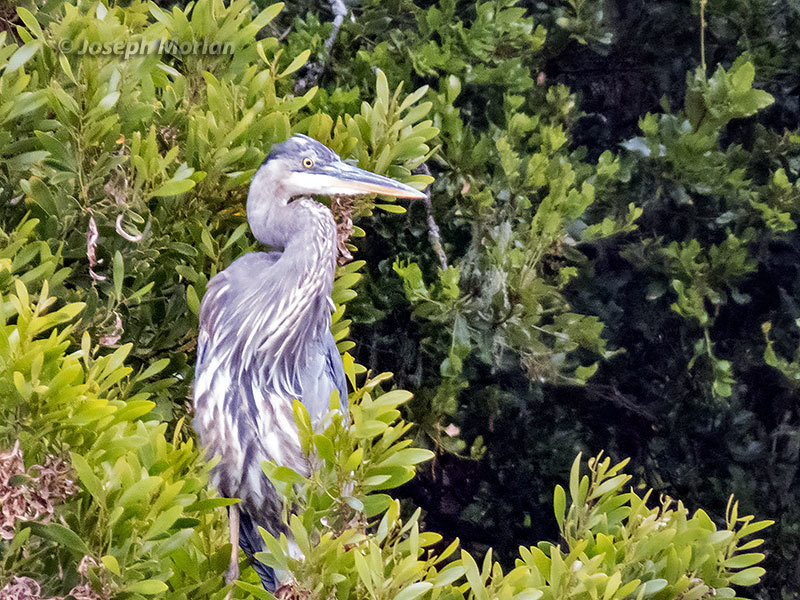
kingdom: Animalia
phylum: Chordata
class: Aves
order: Pelecaniformes
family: Ardeidae
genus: Ardea
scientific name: Ardea herodias
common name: Great blue heron
